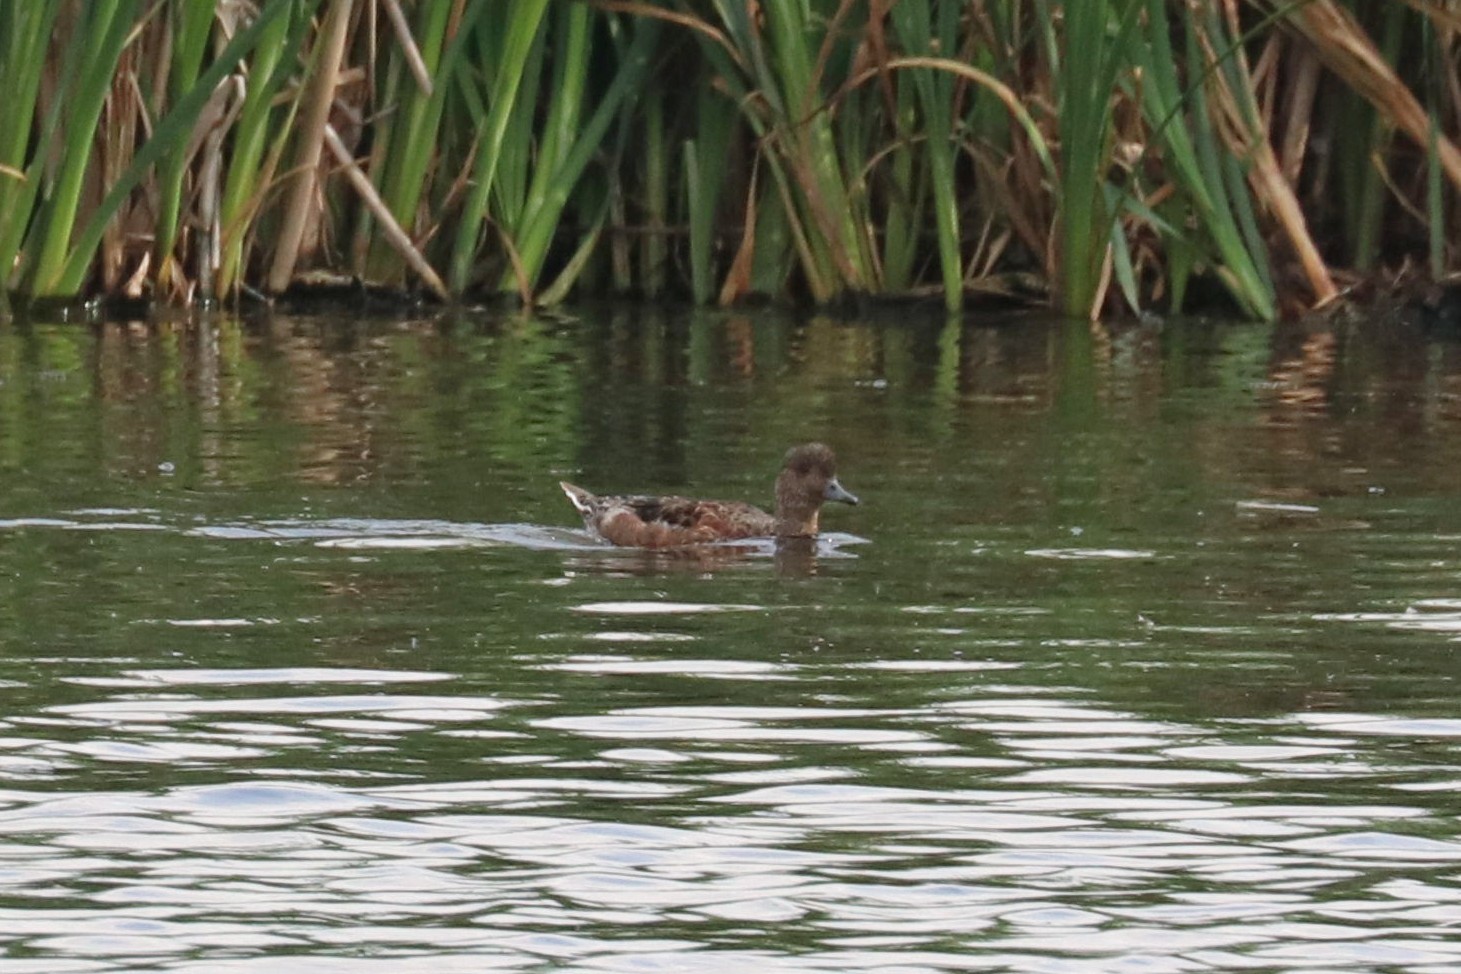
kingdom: Animalia
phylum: Chordata
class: Aves
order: Anseriformes
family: Anatidae
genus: Mareca
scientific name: Mareca penelope
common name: Eurasian wigeon
